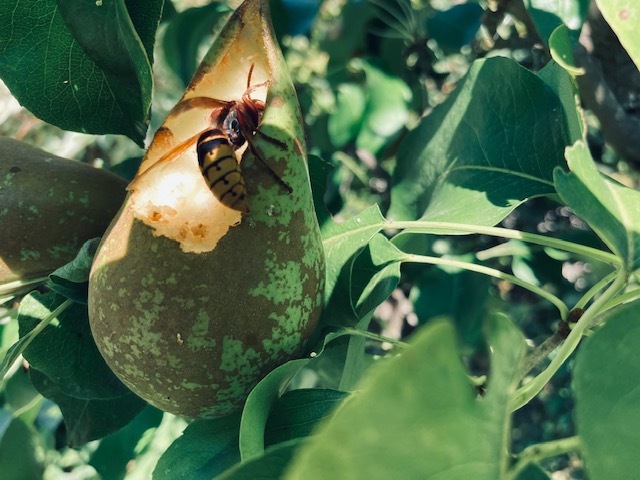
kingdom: Animalia
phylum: Arthropoda
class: Insecta
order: Hymenoptera
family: Vespidae
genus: Vespa
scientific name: Vespa crabro
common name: Hornet
